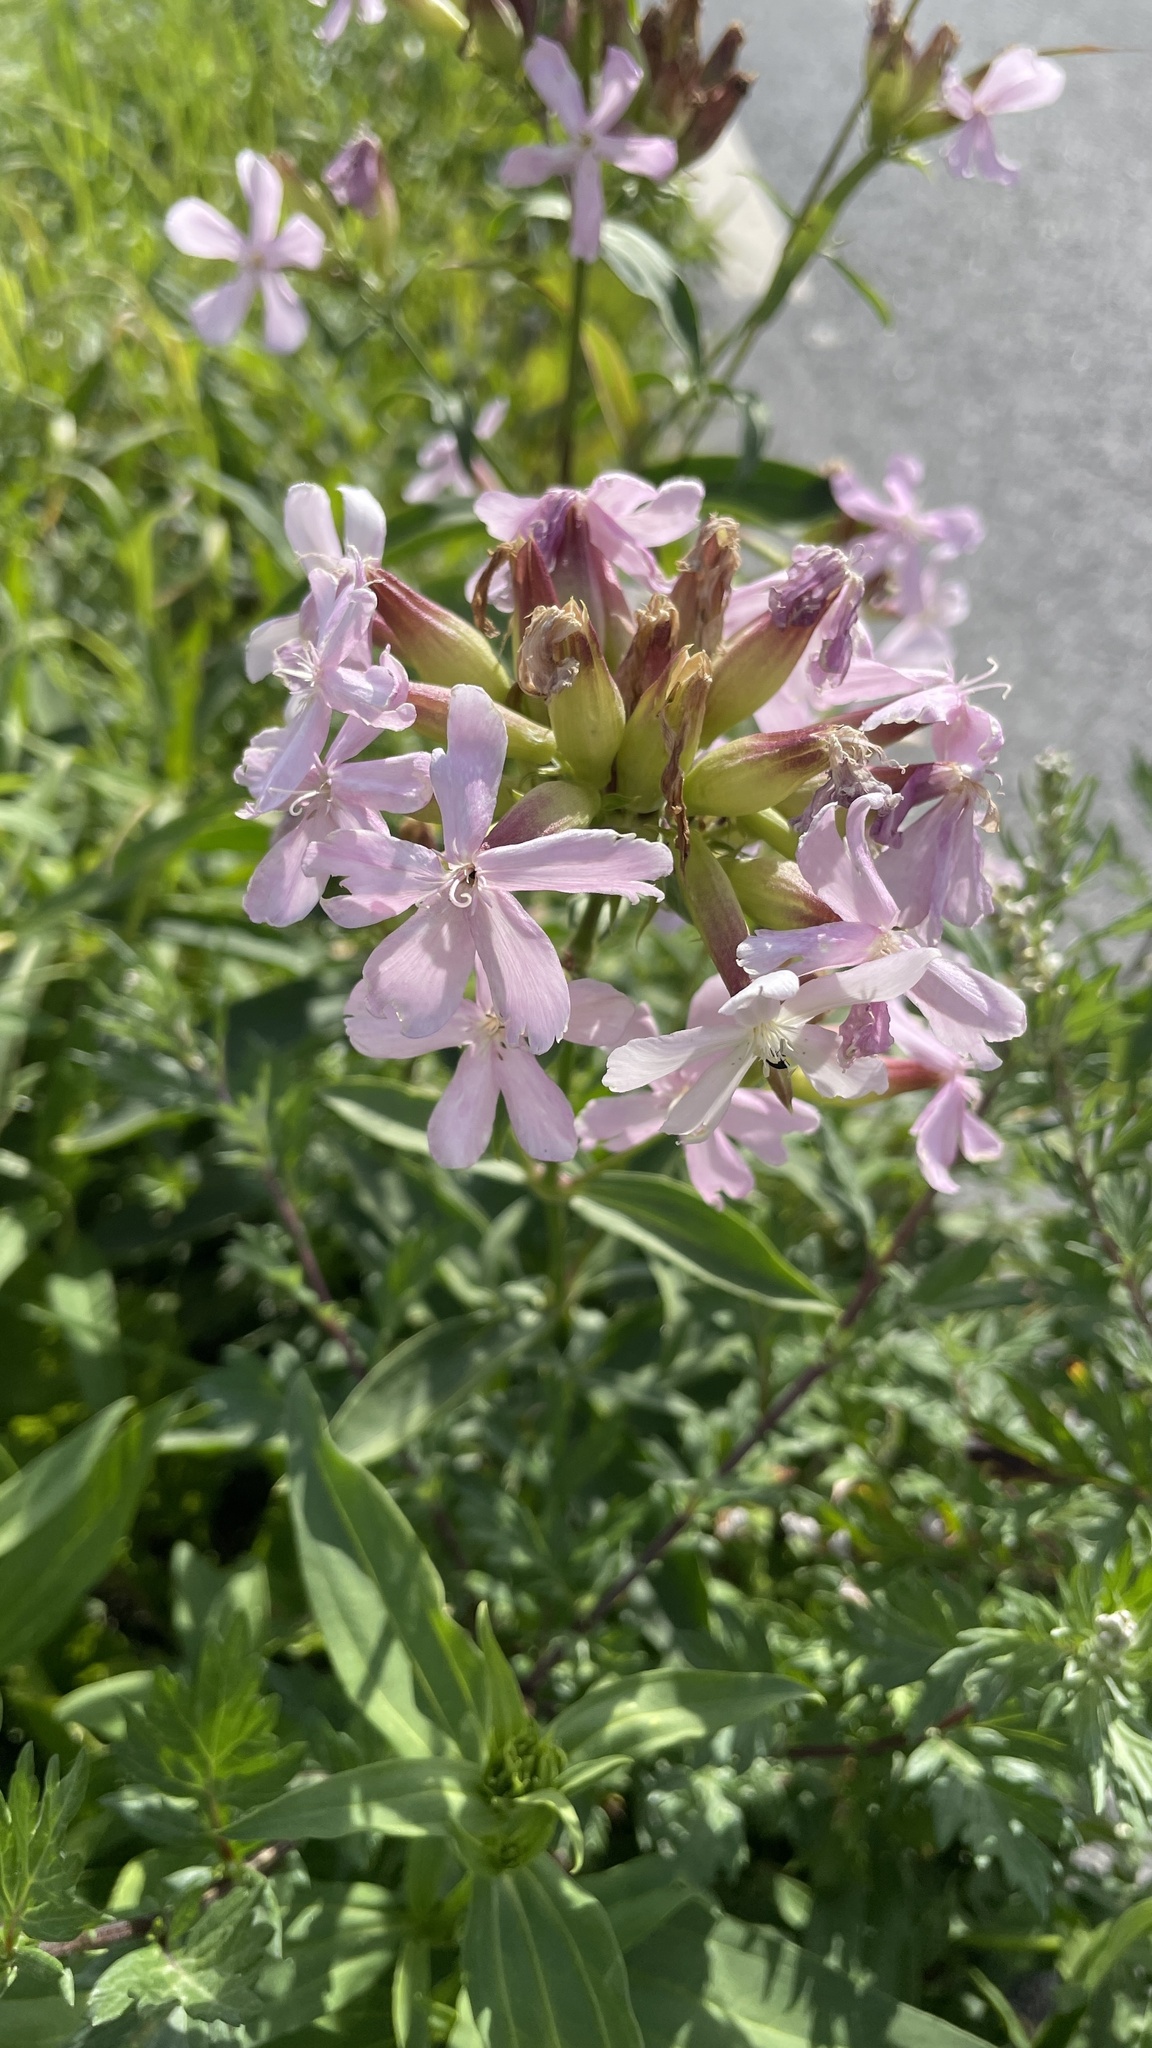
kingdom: Plantae
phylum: Tracheophyta
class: Magnoliopsida
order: Caryophyllales
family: Caryophyllaceae
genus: Saponaria
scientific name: Saponaria officinalis
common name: Soapwort
